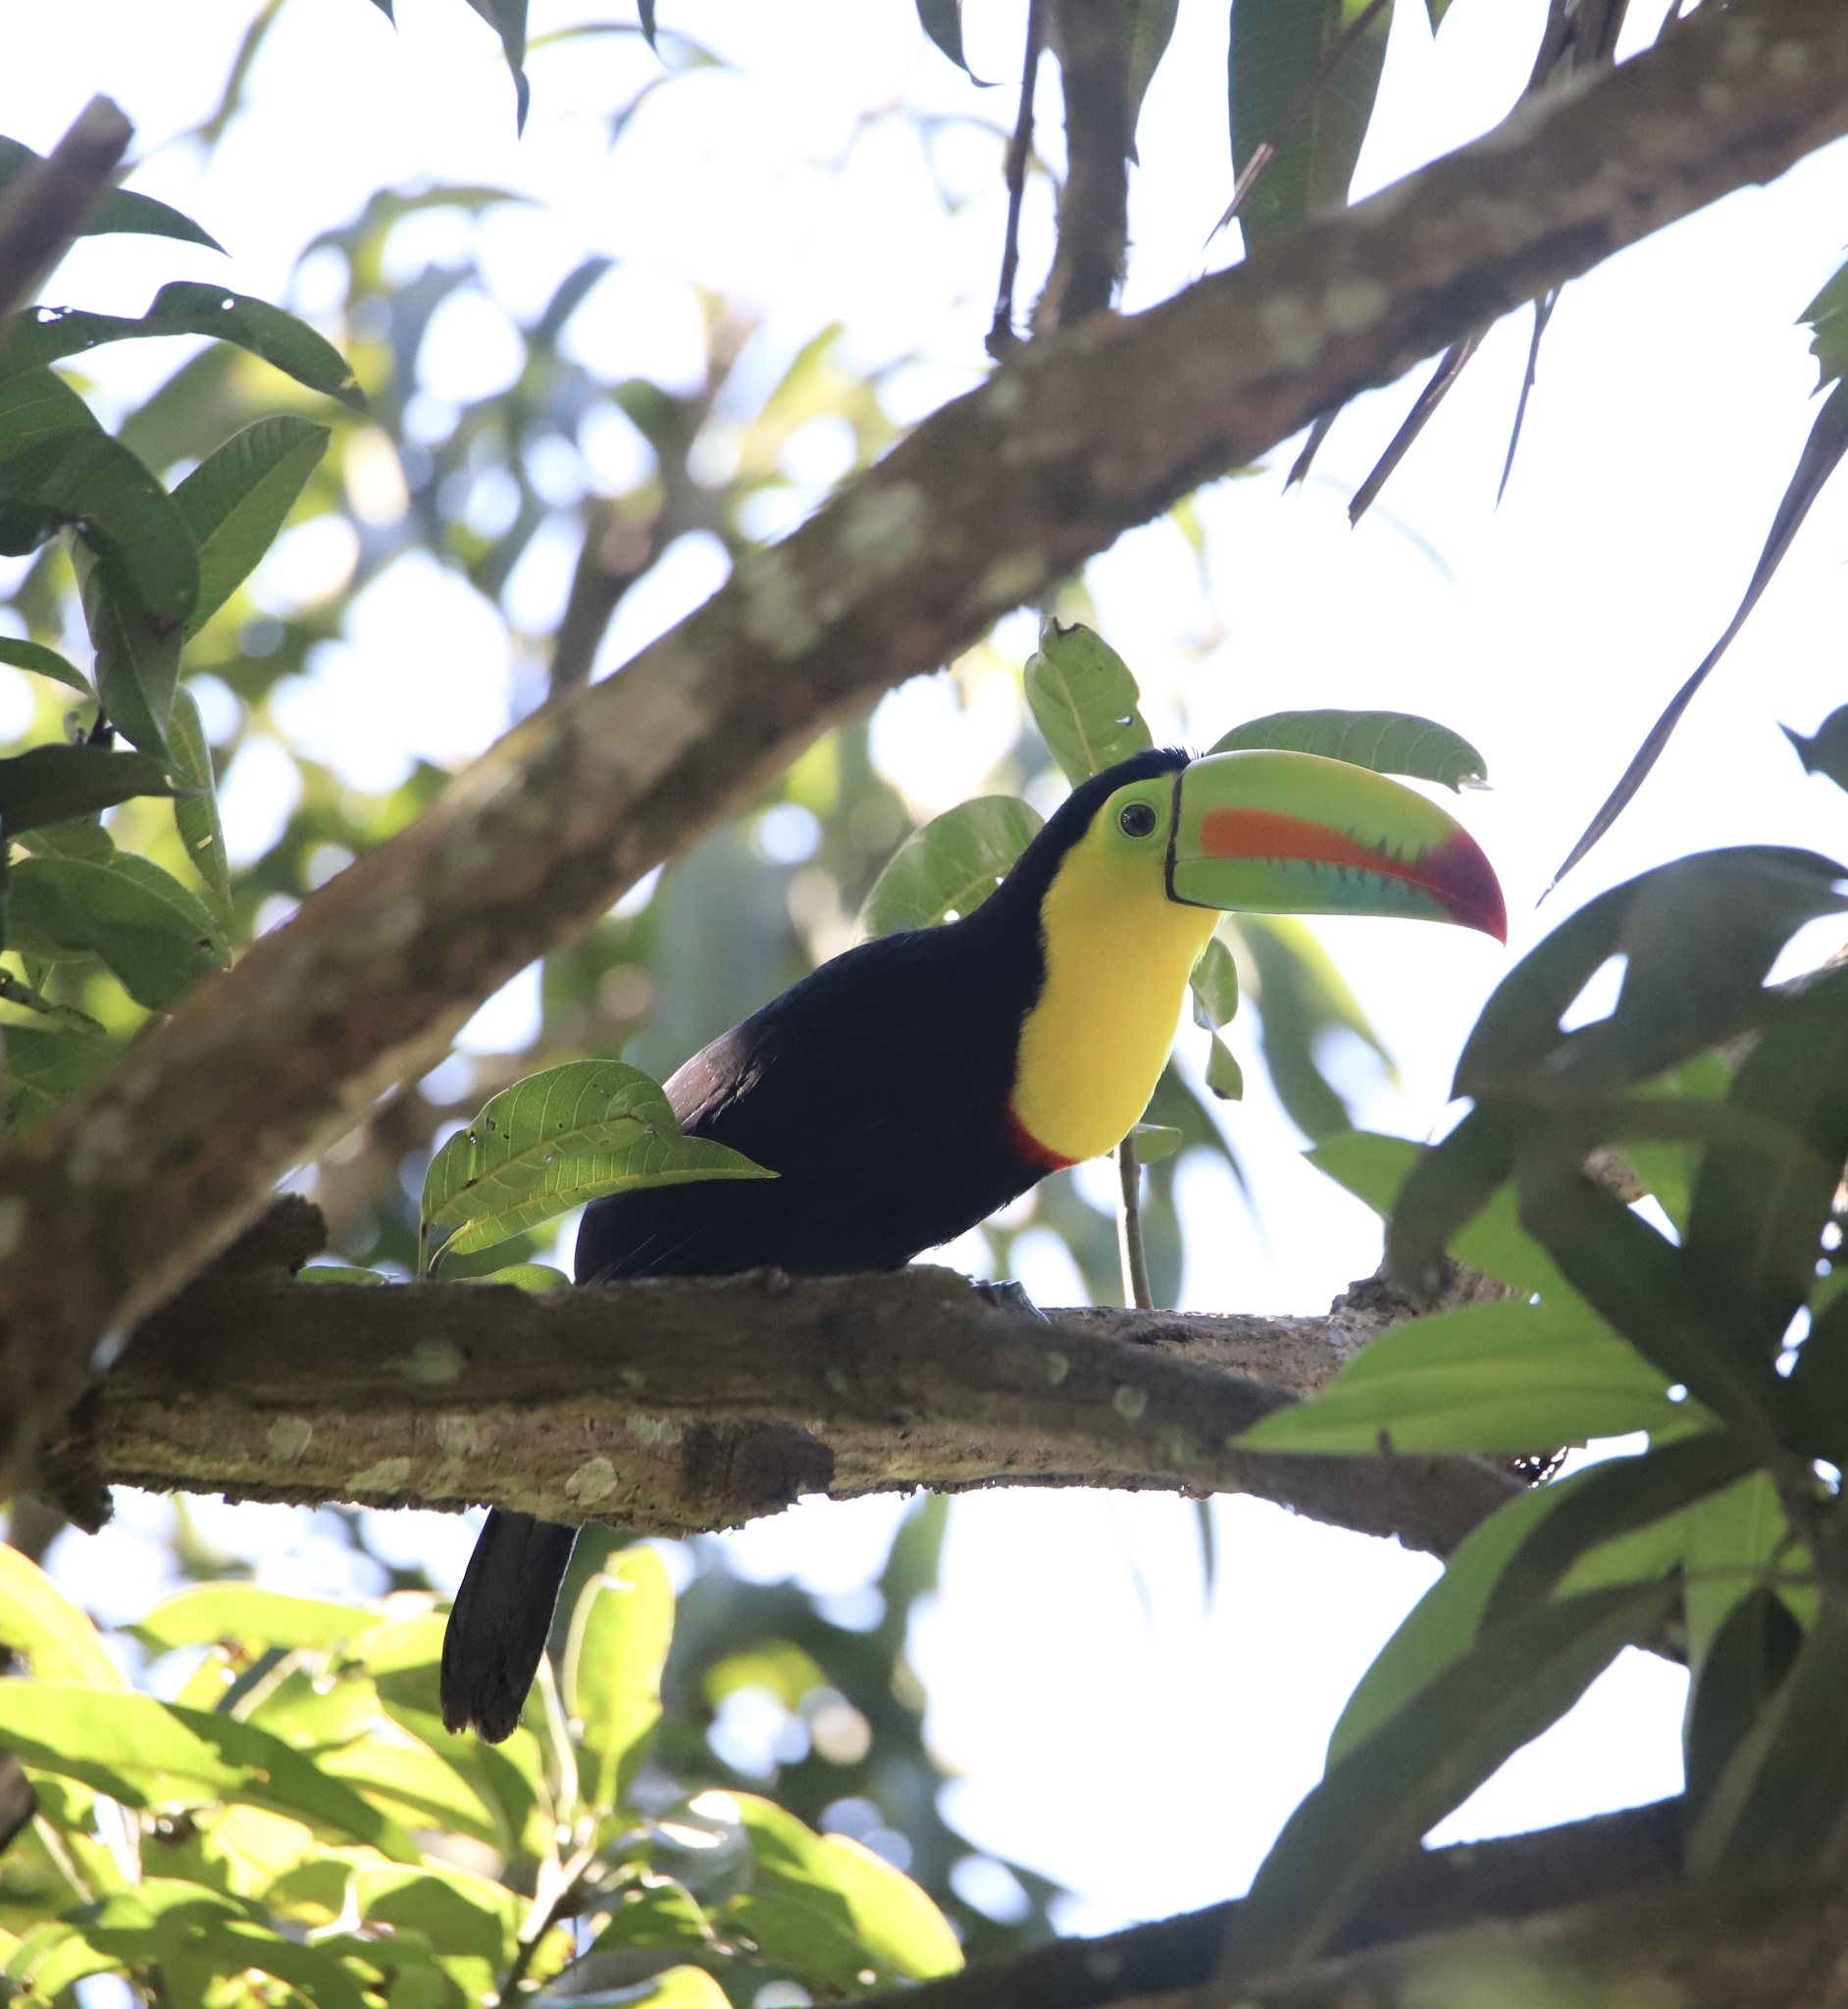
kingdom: Animalia
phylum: Chordata
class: Aves
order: Piciformes
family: Ramphastidae
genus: Ramphastos
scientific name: Ramphastos sulfuratus
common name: Keel-billed toucan
